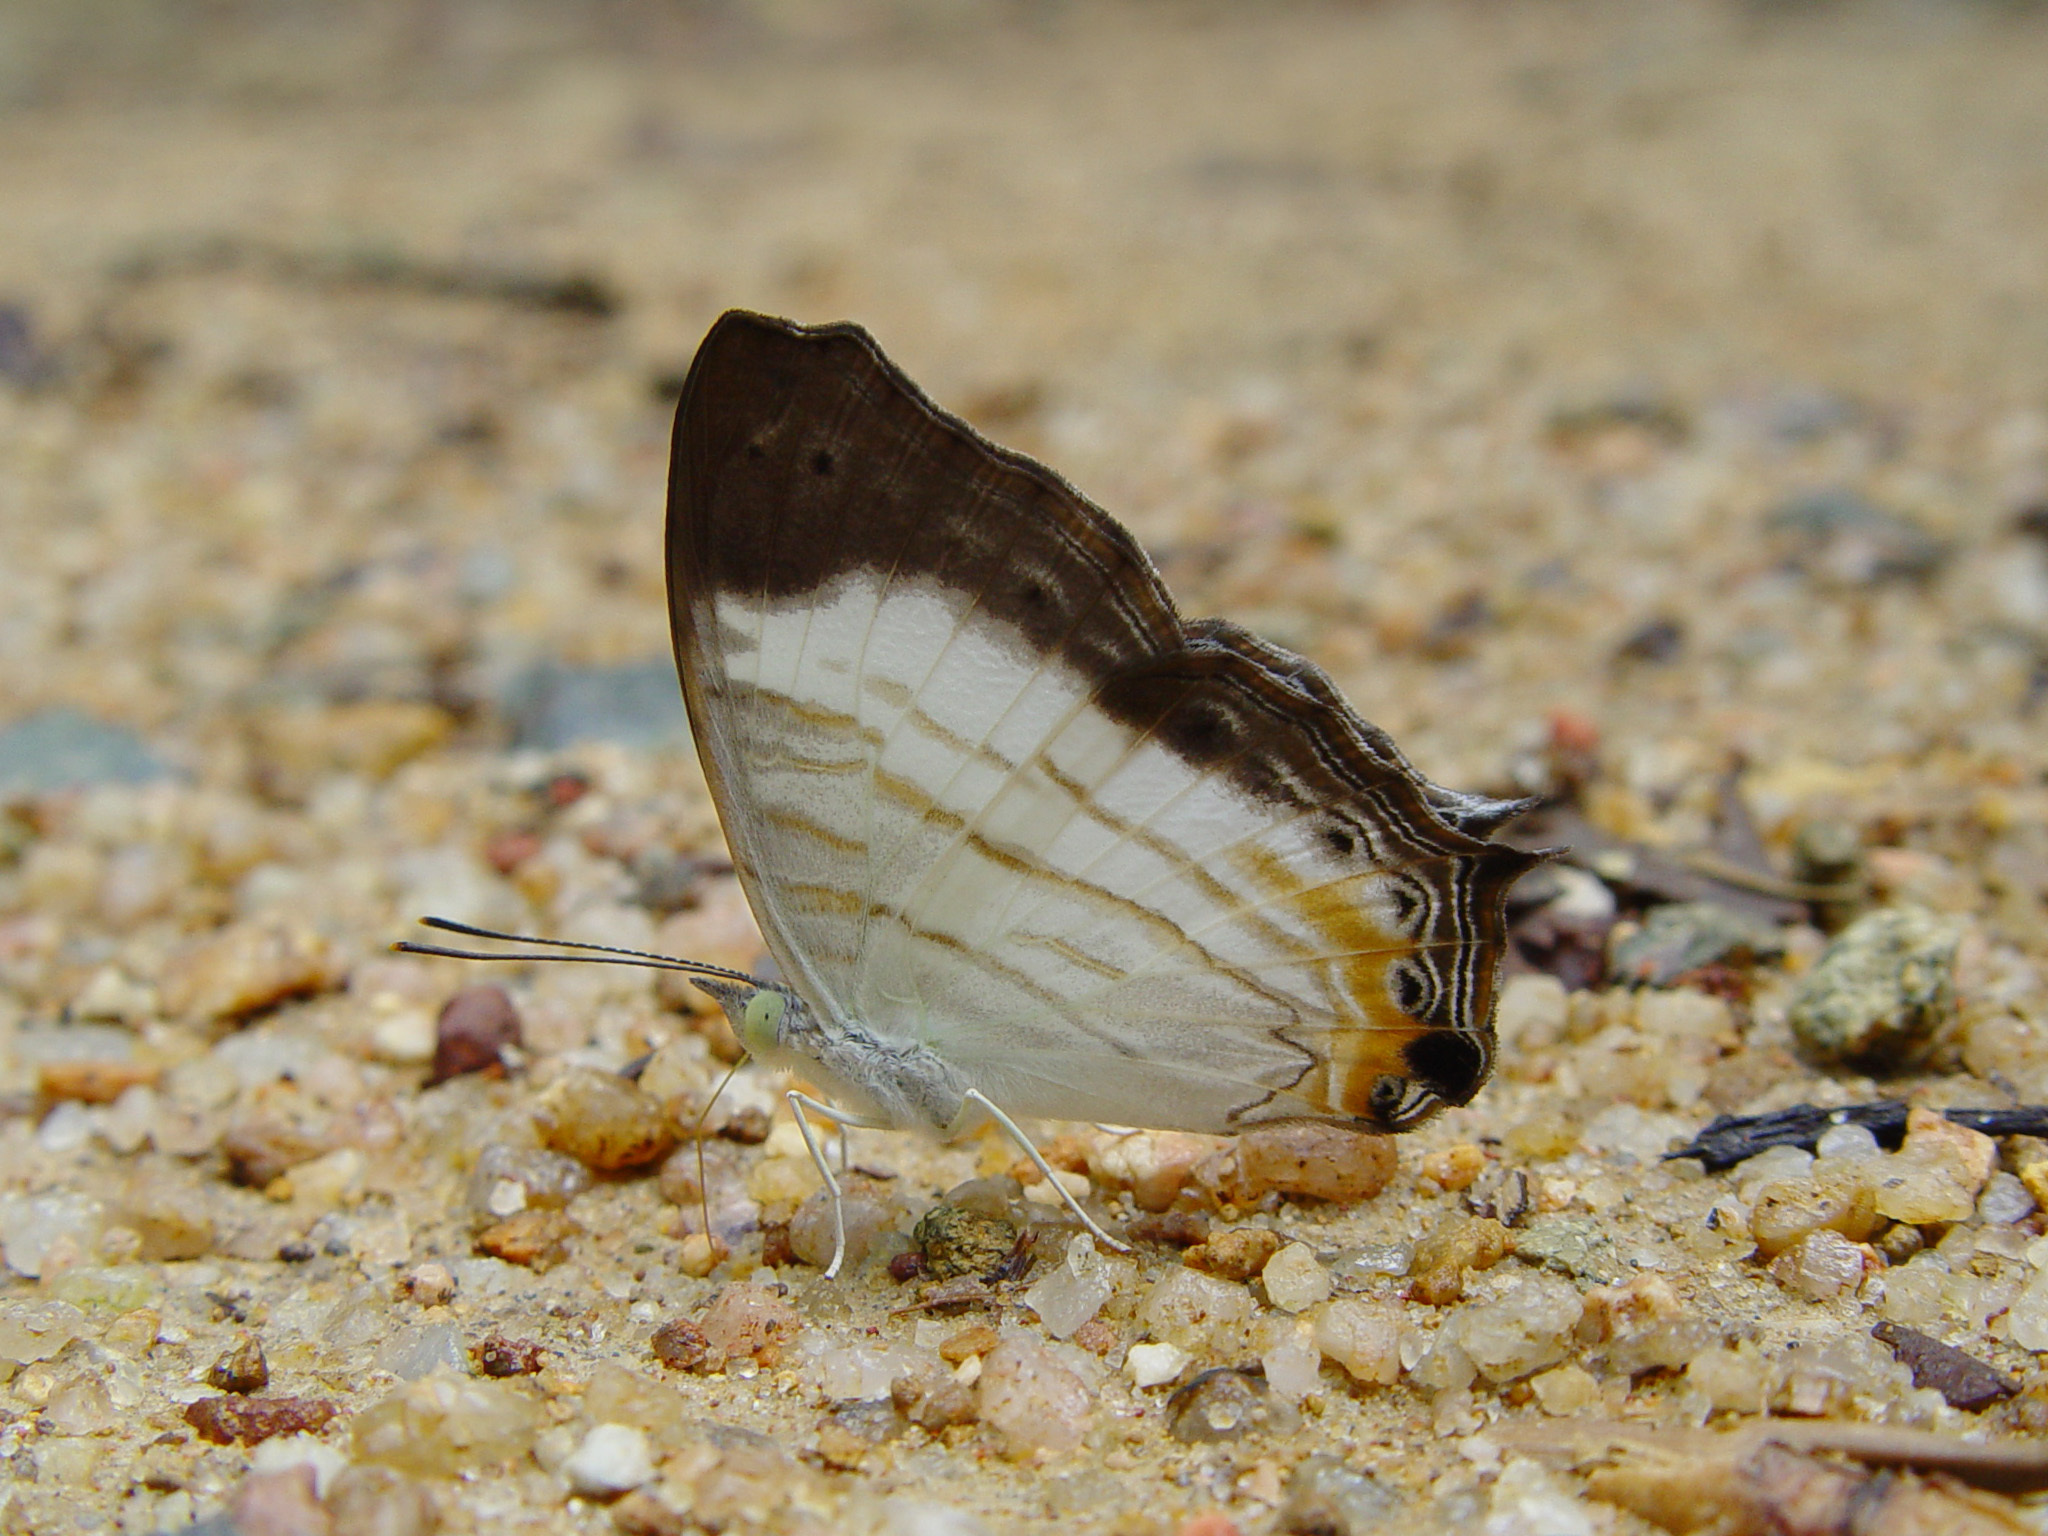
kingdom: Animalia
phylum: Arthropoda
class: Insecta
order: Lepidoptera
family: Nymphalidae
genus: Cyrestis
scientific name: Cyrestis themire
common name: Little mapwing
